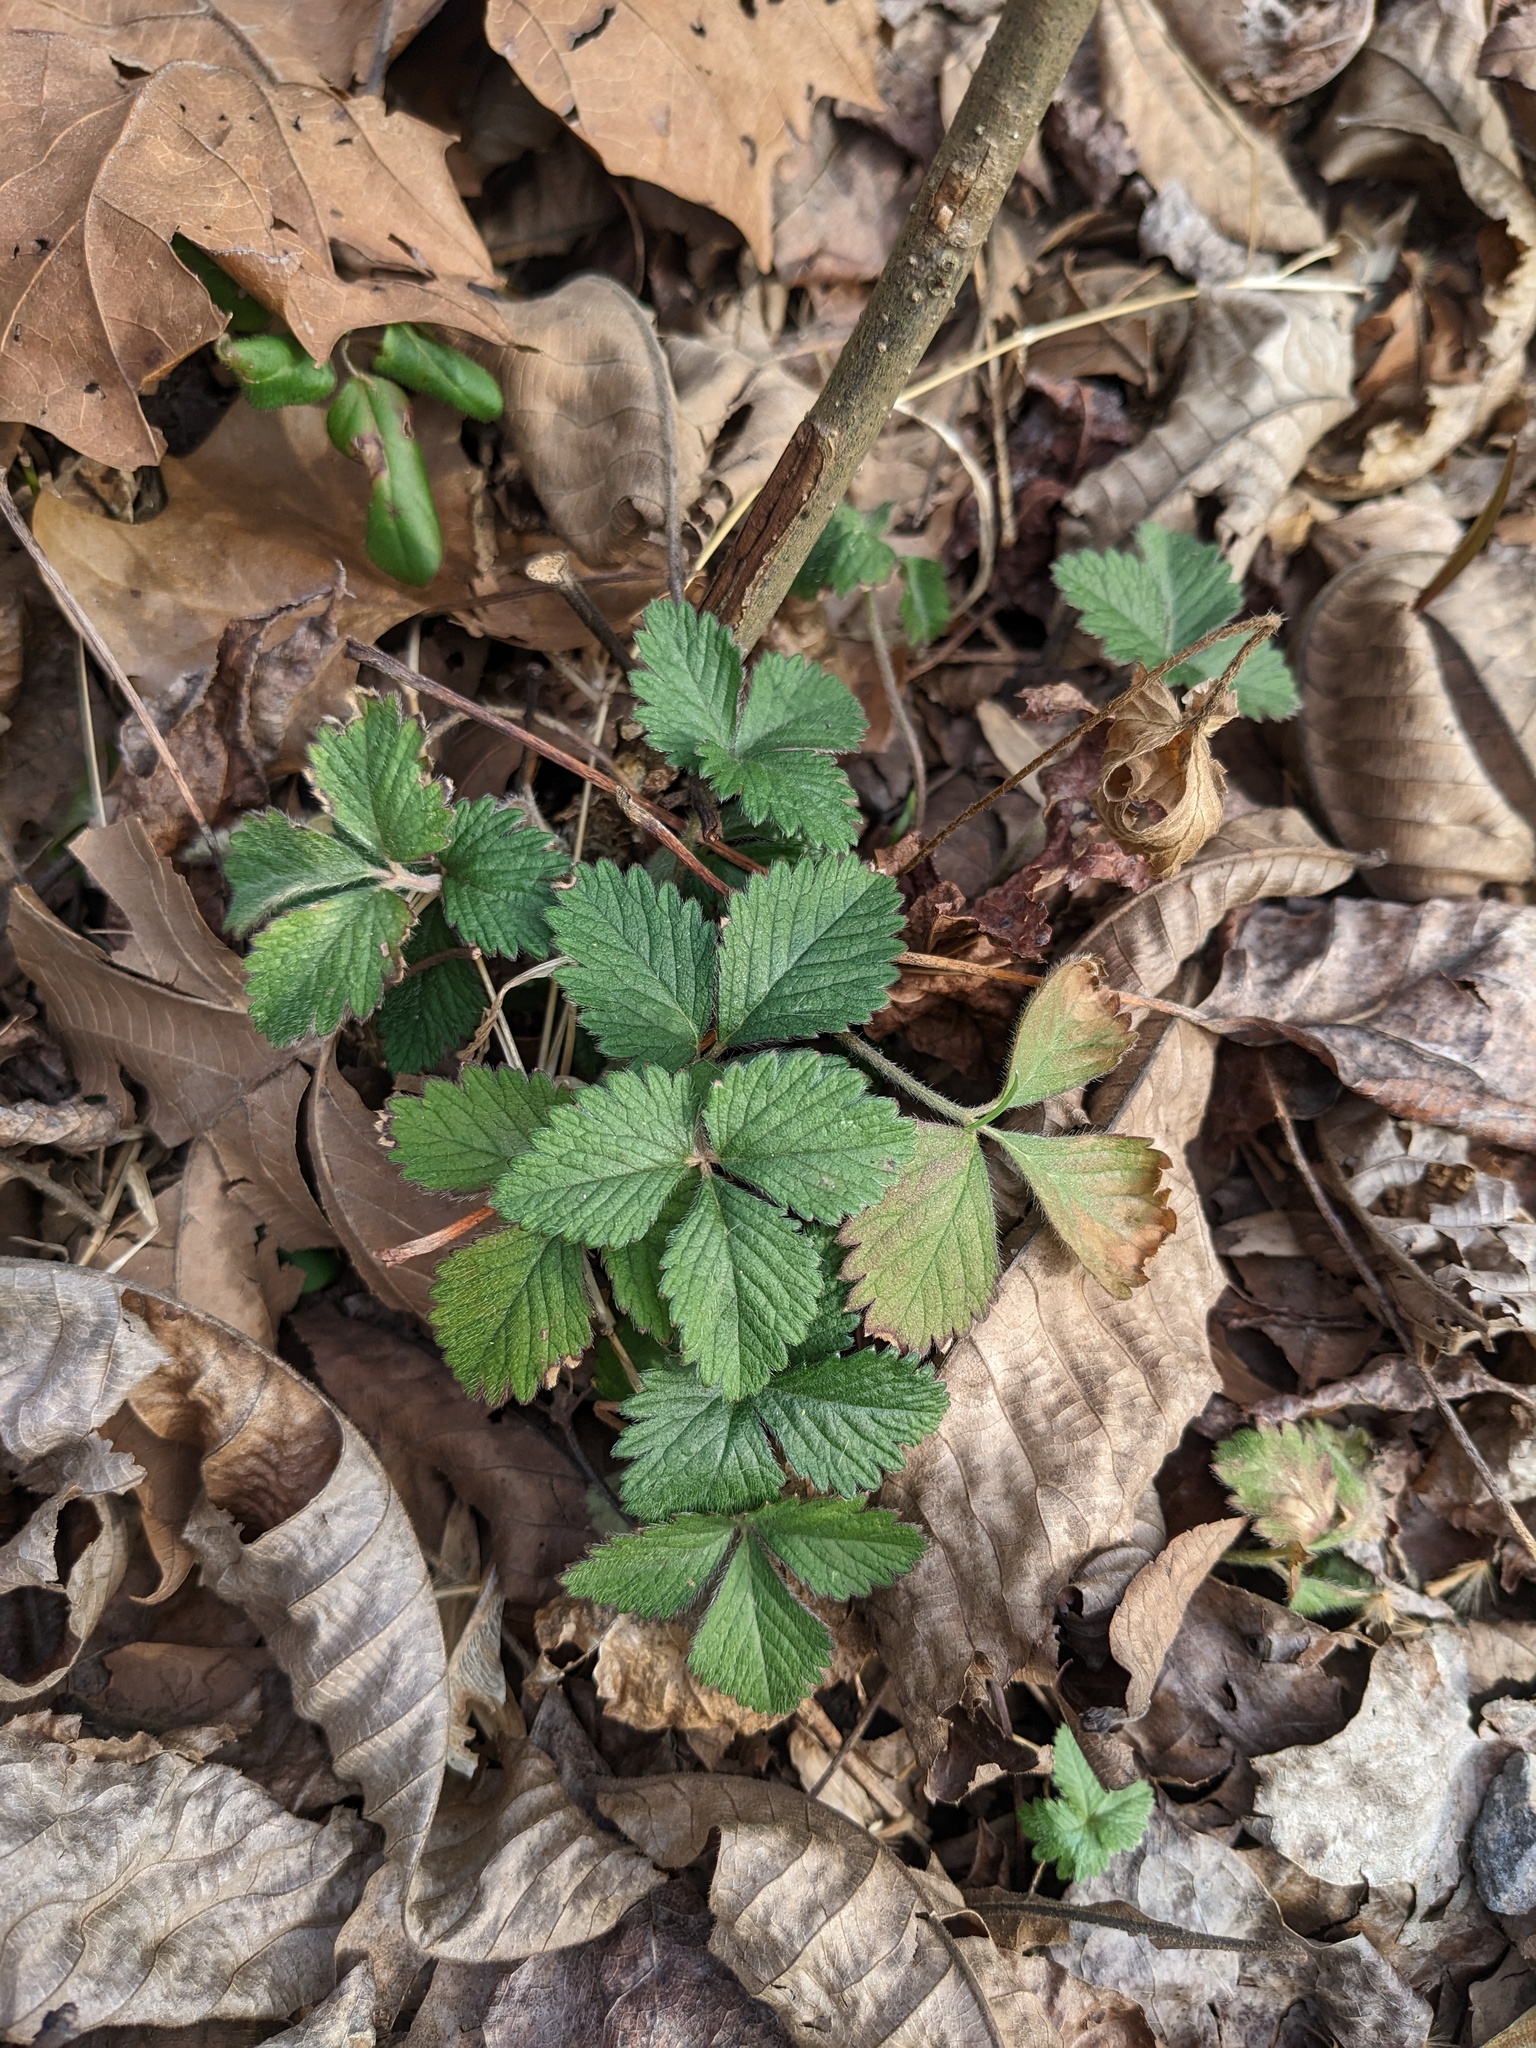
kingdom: Plantae
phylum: Tracheophyta
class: Magnoliopsida
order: Rosales
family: Rosaceae
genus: Potentilla
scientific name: Potentilla indica
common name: Yellow-flowered strawberry
